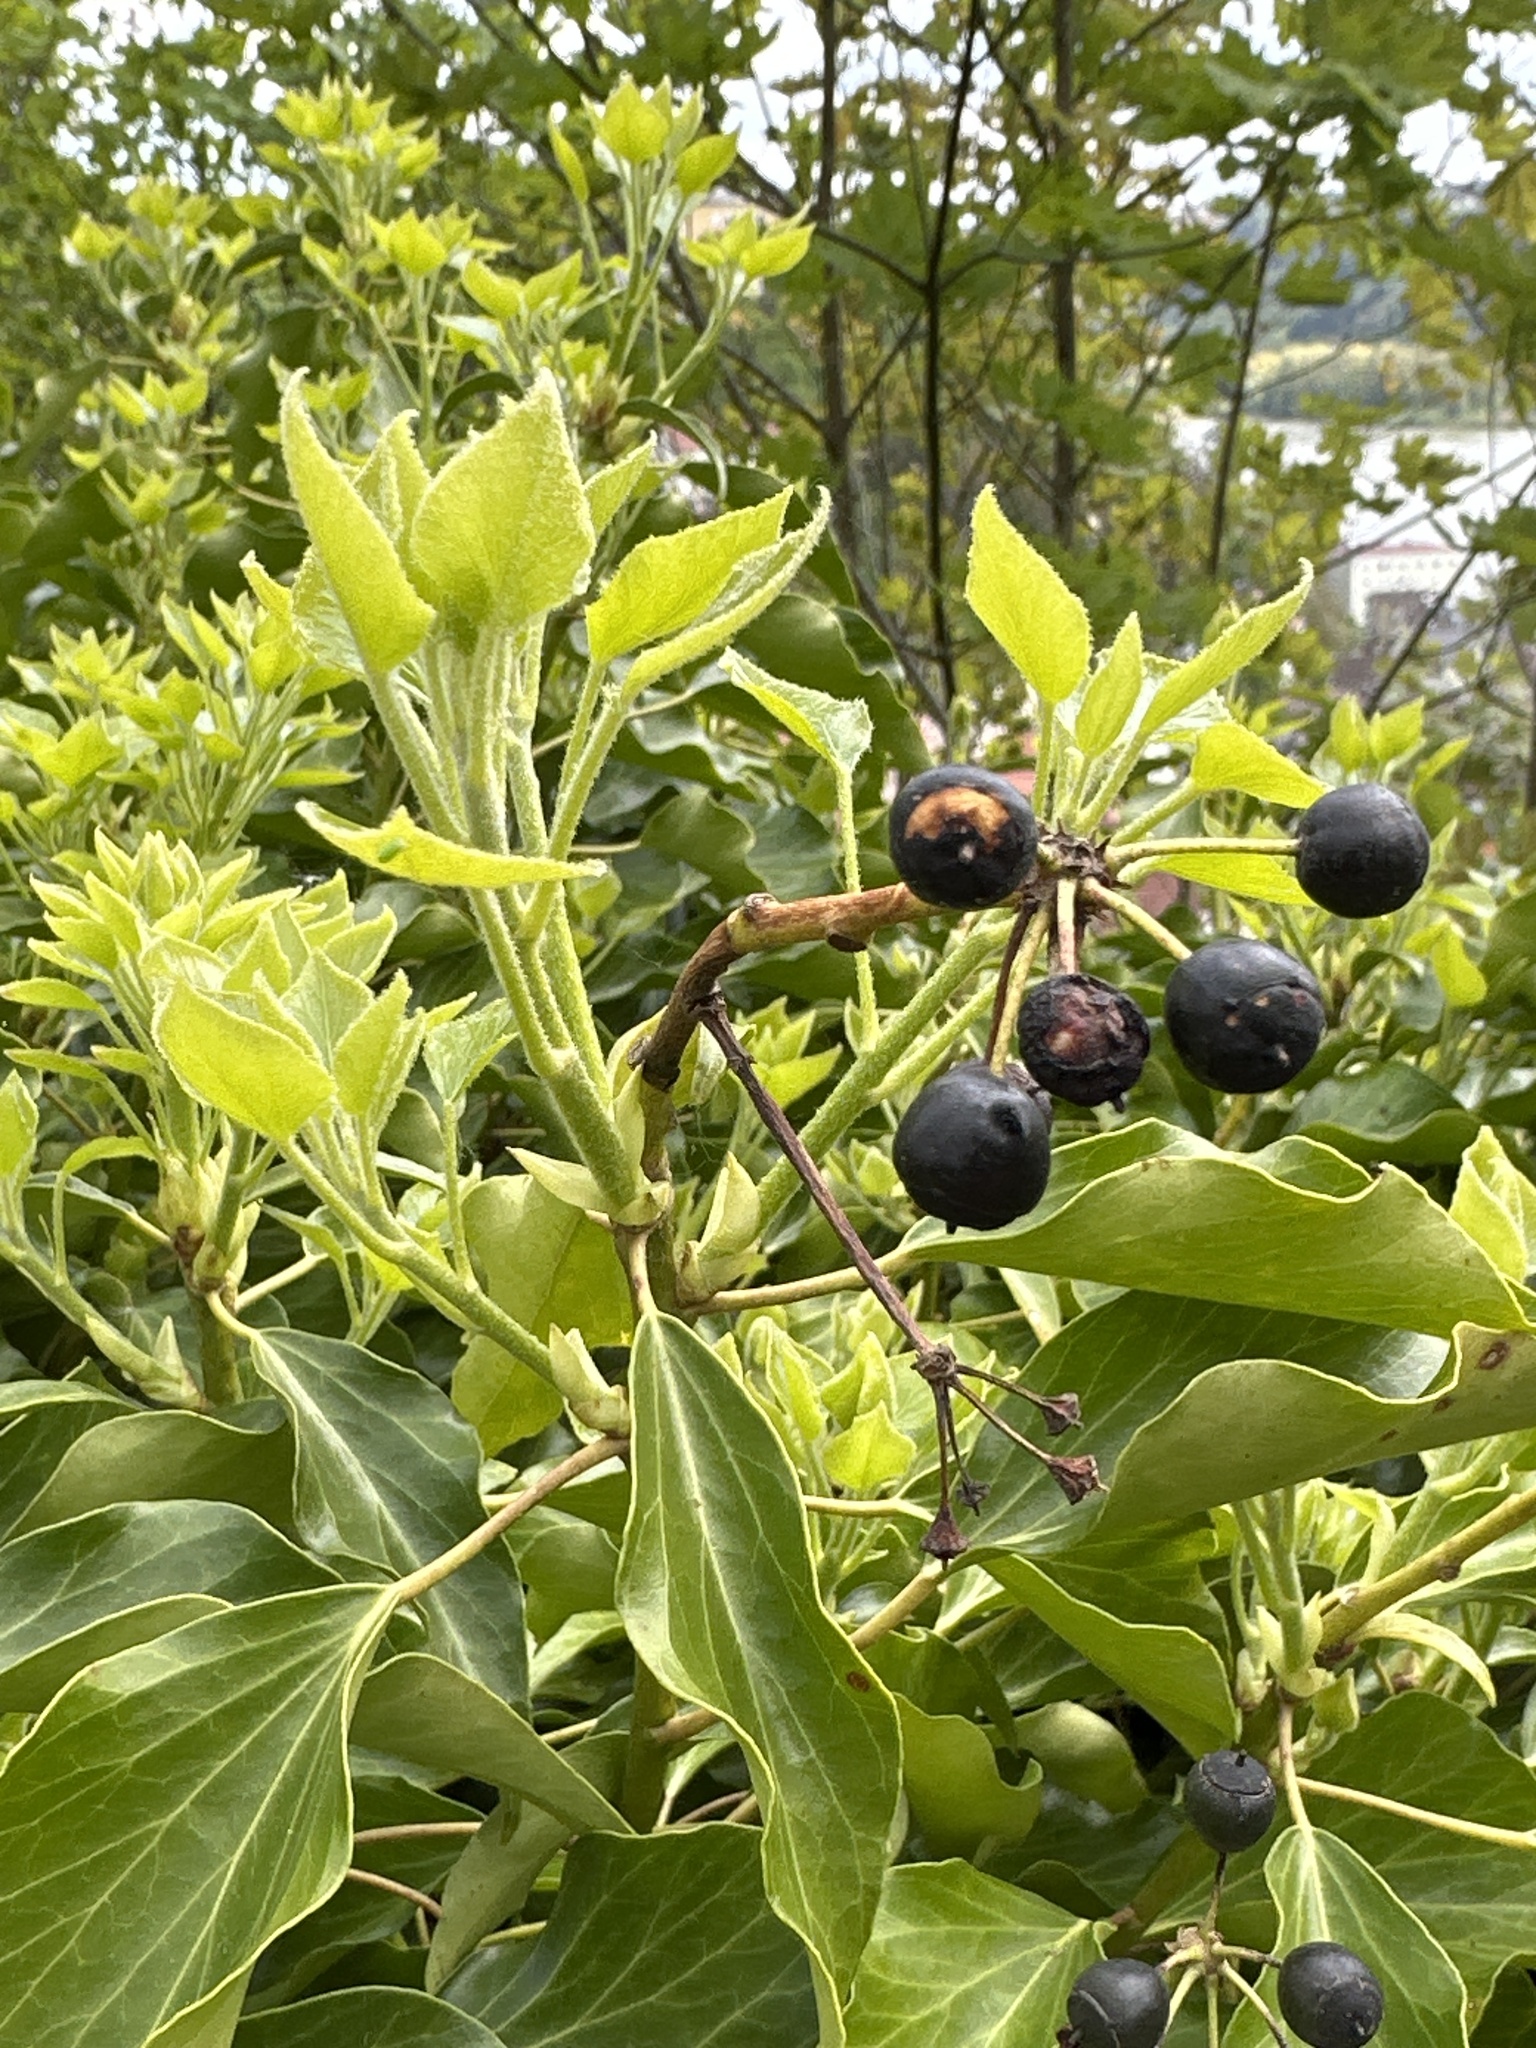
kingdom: Plantae
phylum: Tracheophyta
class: Magnoliopsida
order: Apiales
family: Araliaceae
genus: Hedera
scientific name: Hedera helix
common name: Ivy
